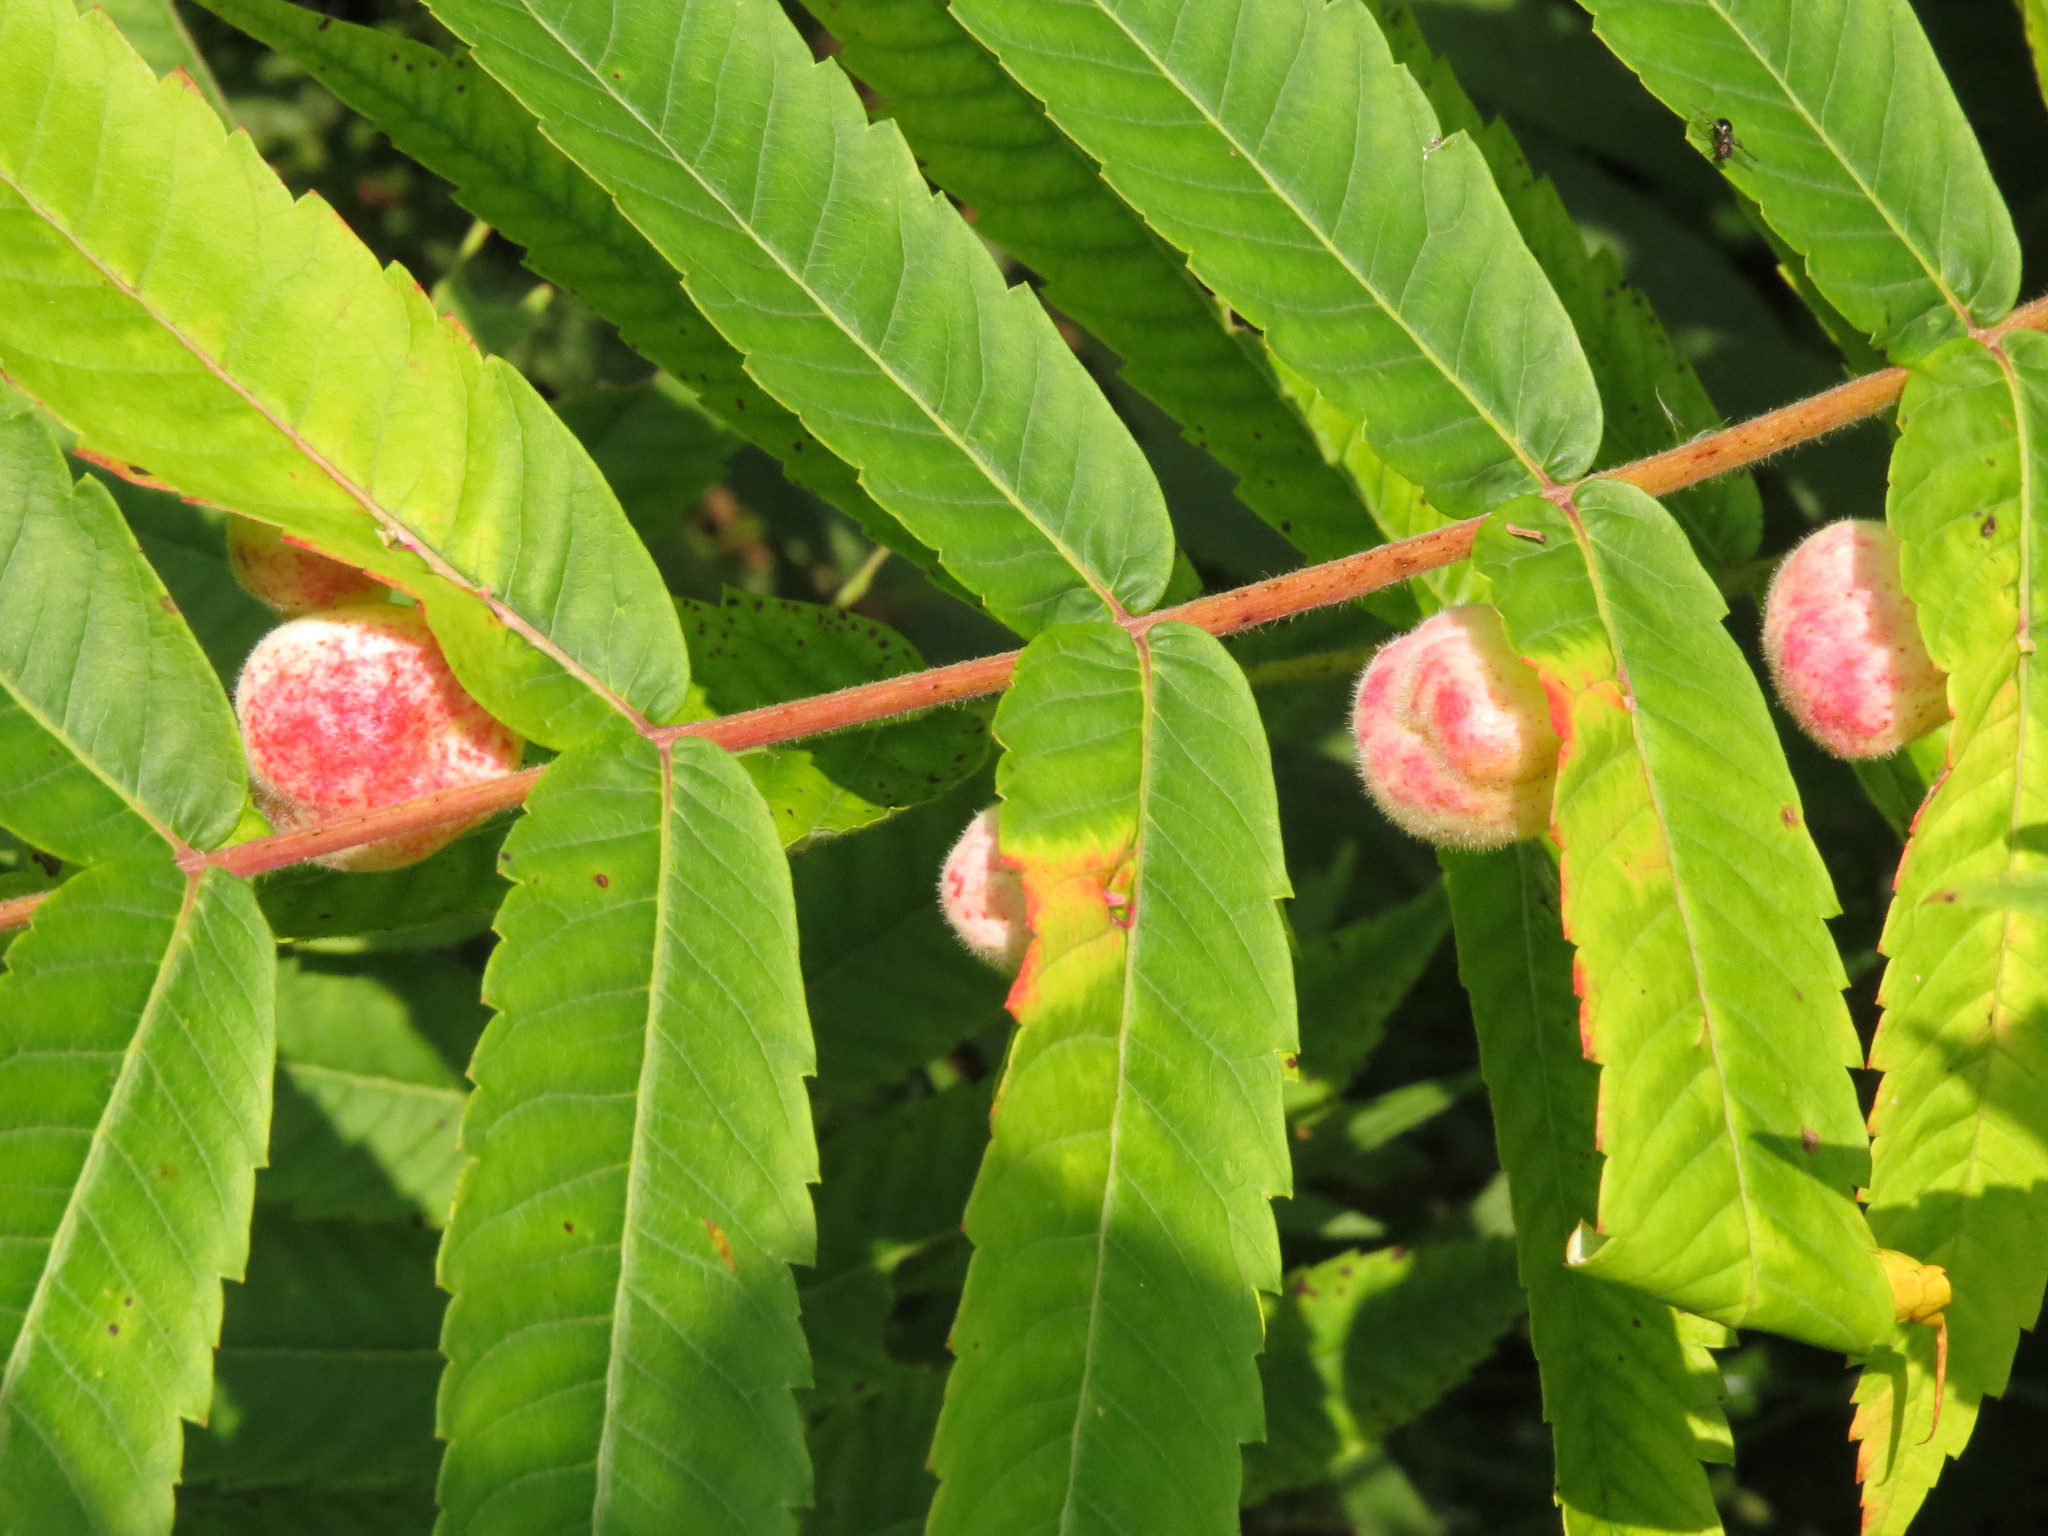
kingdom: Animalia
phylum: Arthropoda
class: Insecta
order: Hemiptera
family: Aphididae
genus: Melaphis
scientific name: Melaphis rhois
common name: Sumac gall aphid
